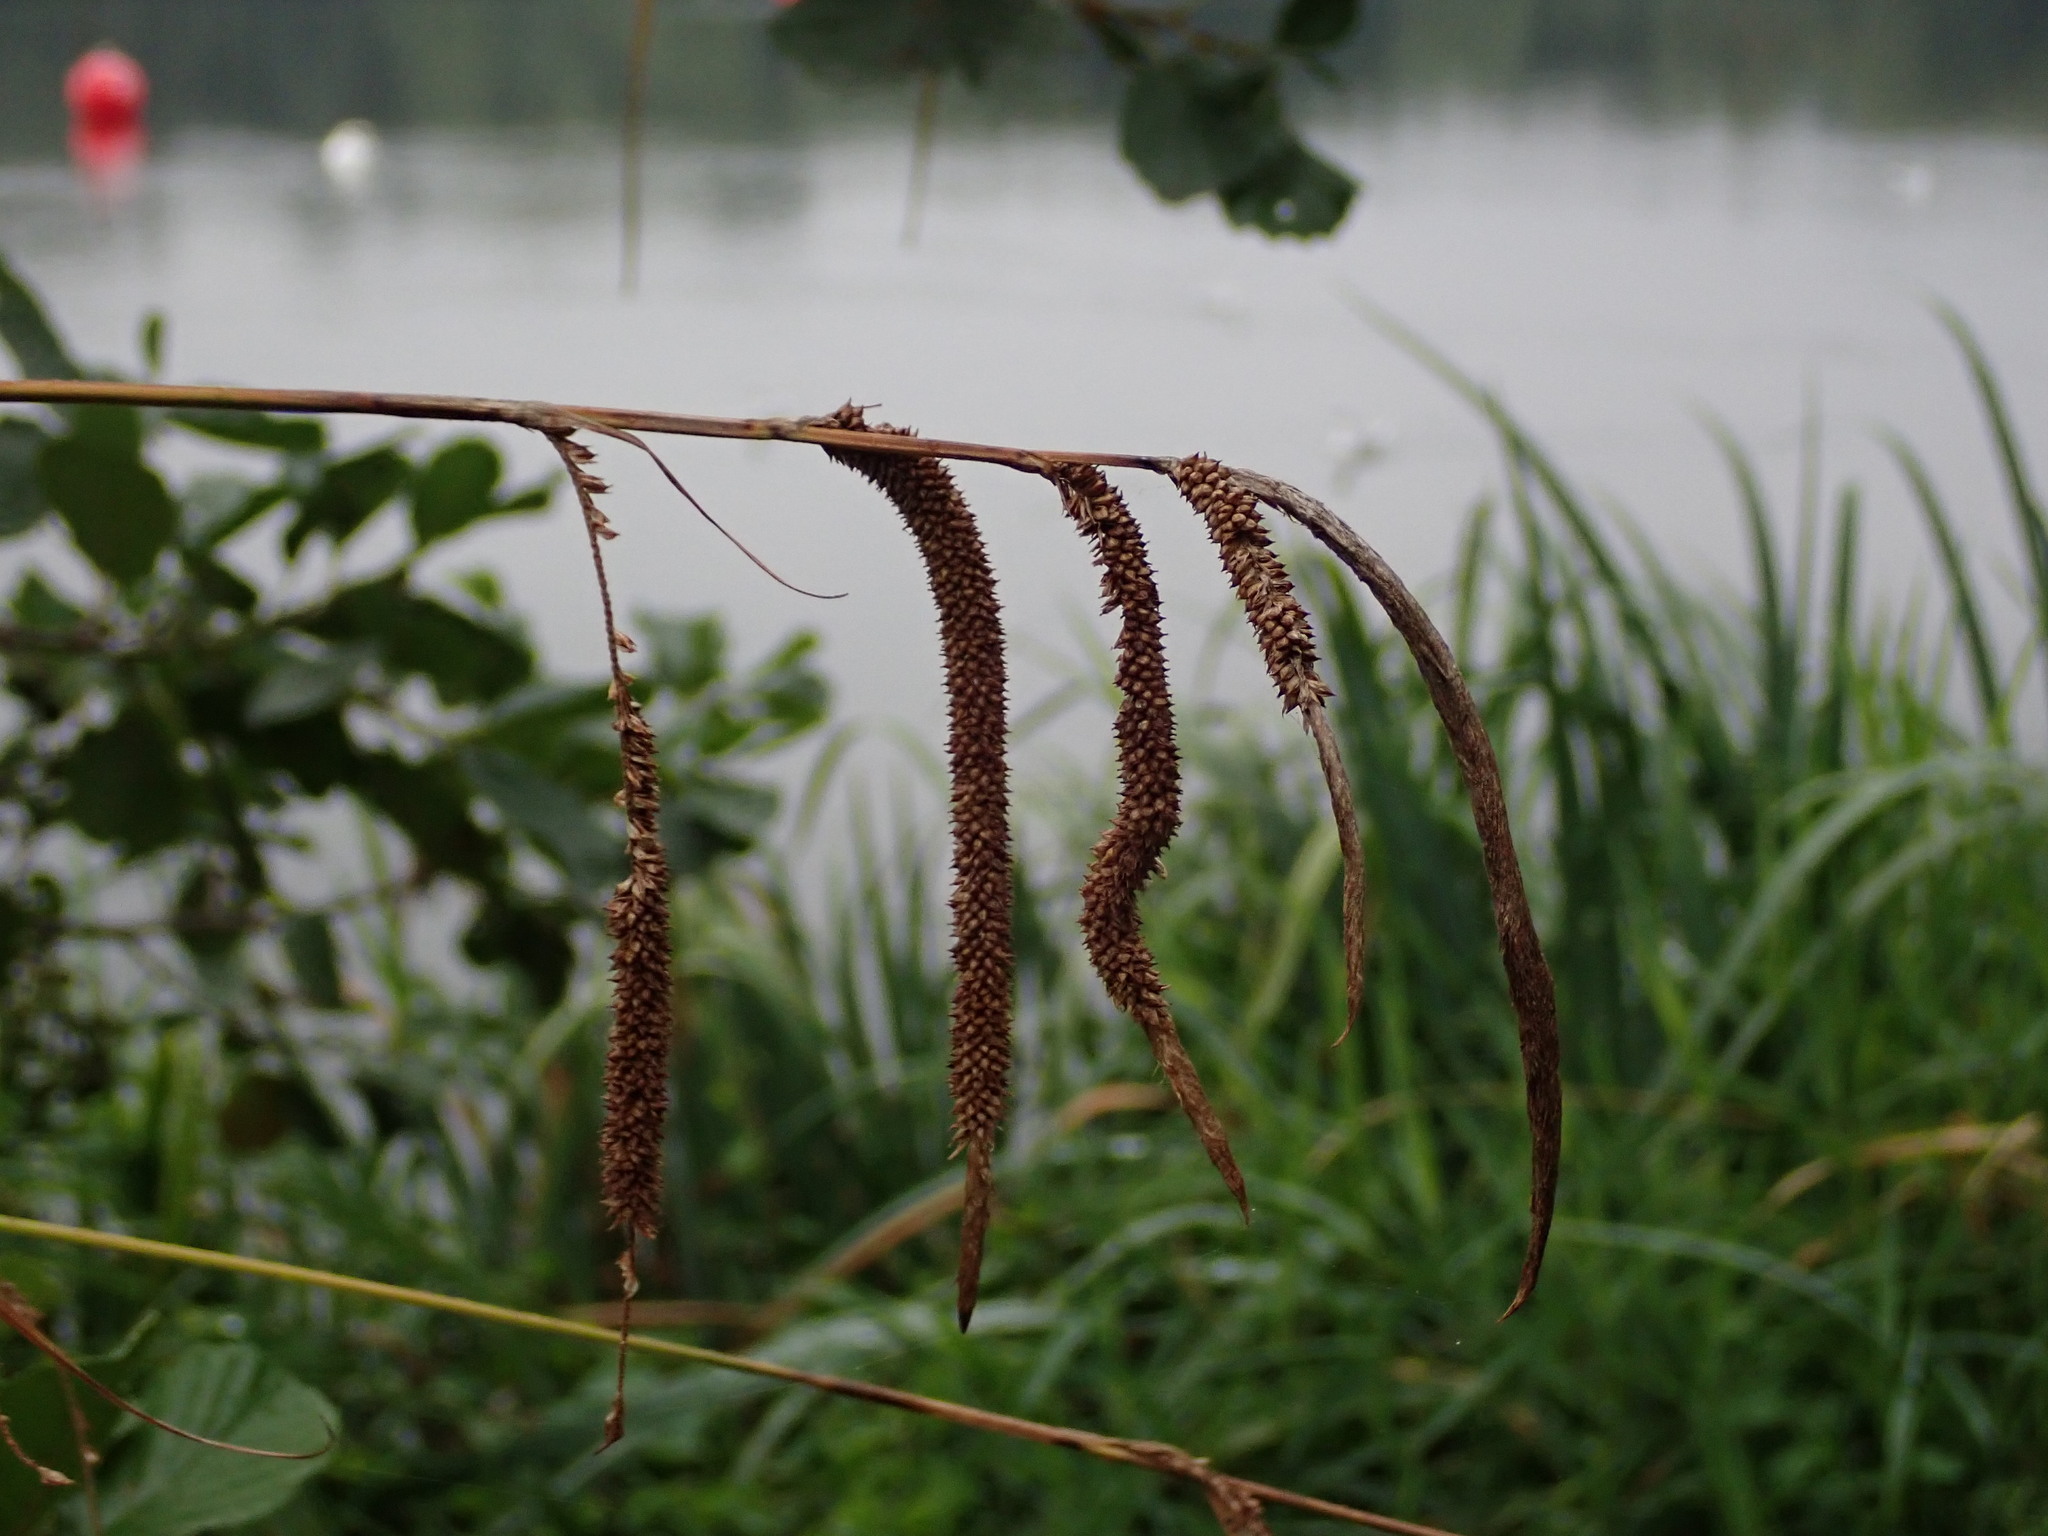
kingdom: Plantae
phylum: Tracheophyta
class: Liliopsida
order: Poales
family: Cyperaceae
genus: Carex
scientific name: Carex pendula
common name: Pendulous sedge
